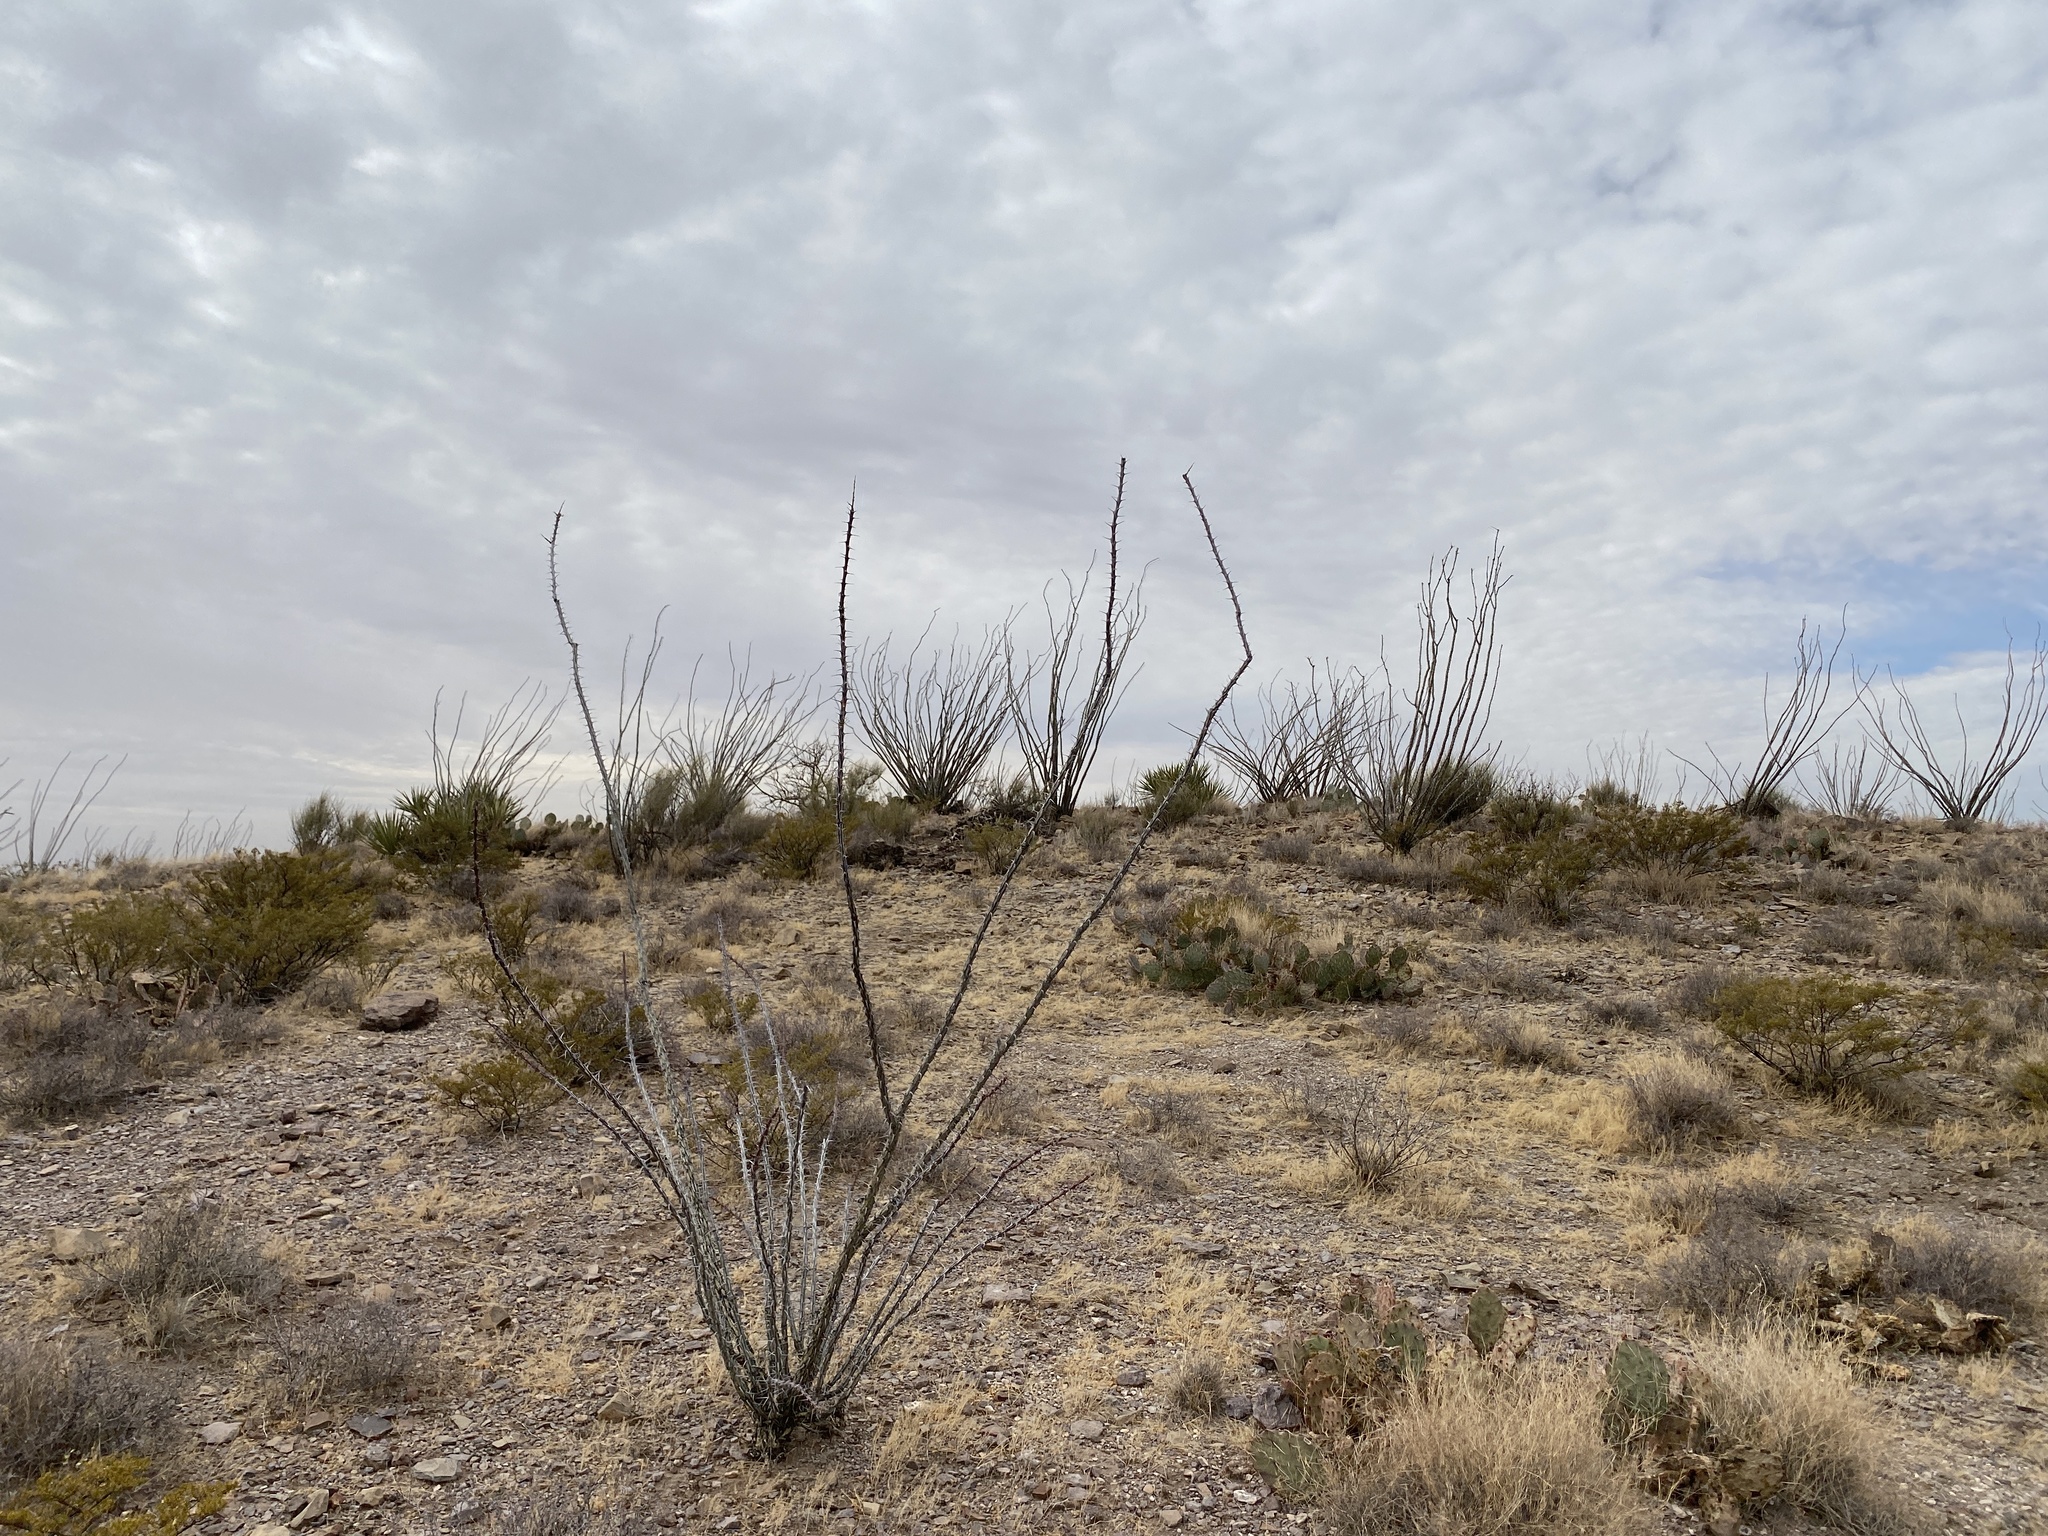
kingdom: Plantae
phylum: Tracheophyta
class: Magnoliopsida
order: Ericales
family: Fouquieriaceae
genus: Fouquieria
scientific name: Fouquieria splendens
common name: Vine-cactus
